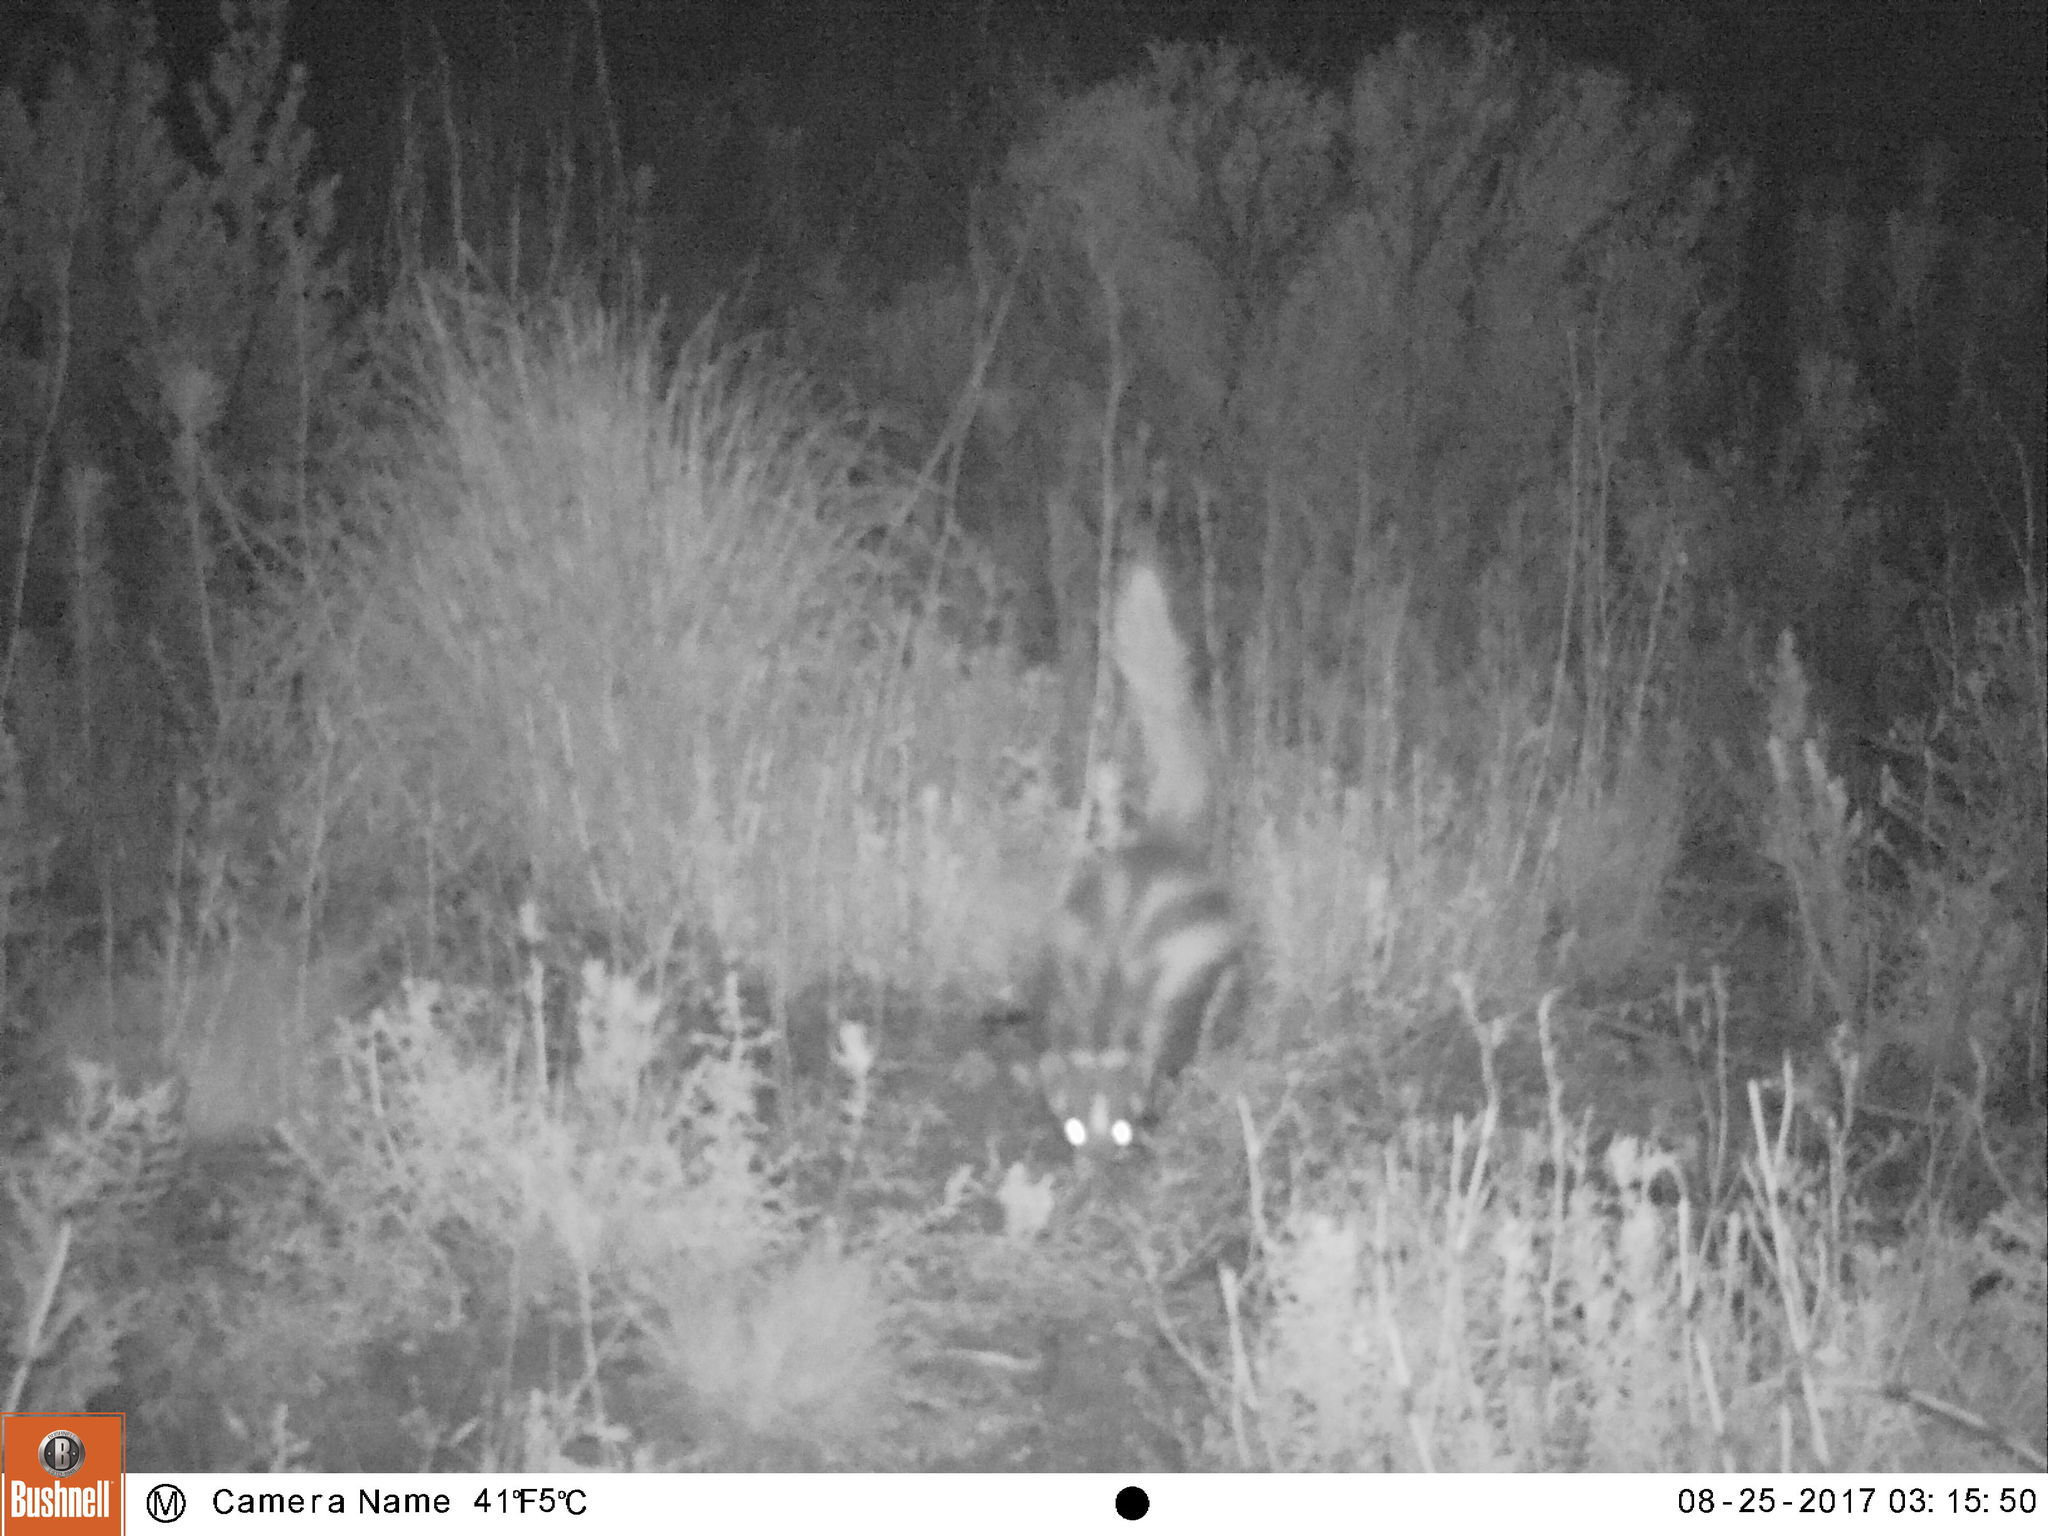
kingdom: Animalia
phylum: Chordata
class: Mammalia
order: Carnivora
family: Mustelidae
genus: Ictonyx
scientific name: Ictonyx striatus
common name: Striped polecat
